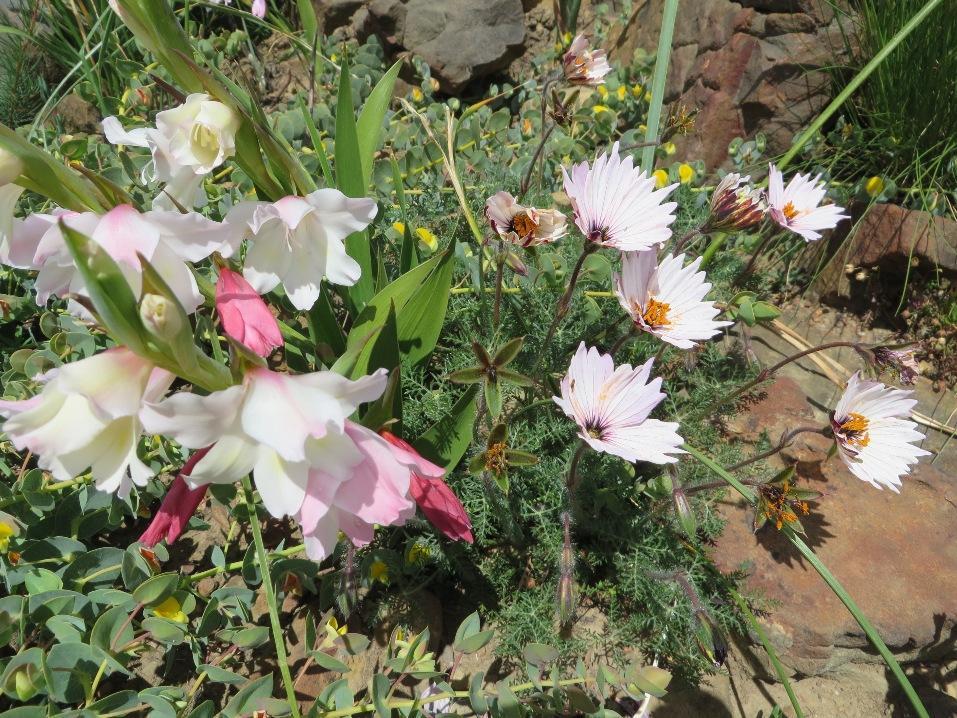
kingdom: Plantae
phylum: Tracheophyta
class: Magnoliopsida
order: Geraniales
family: Geraniaceae
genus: Monsonia
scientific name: Monsonia speciosa
